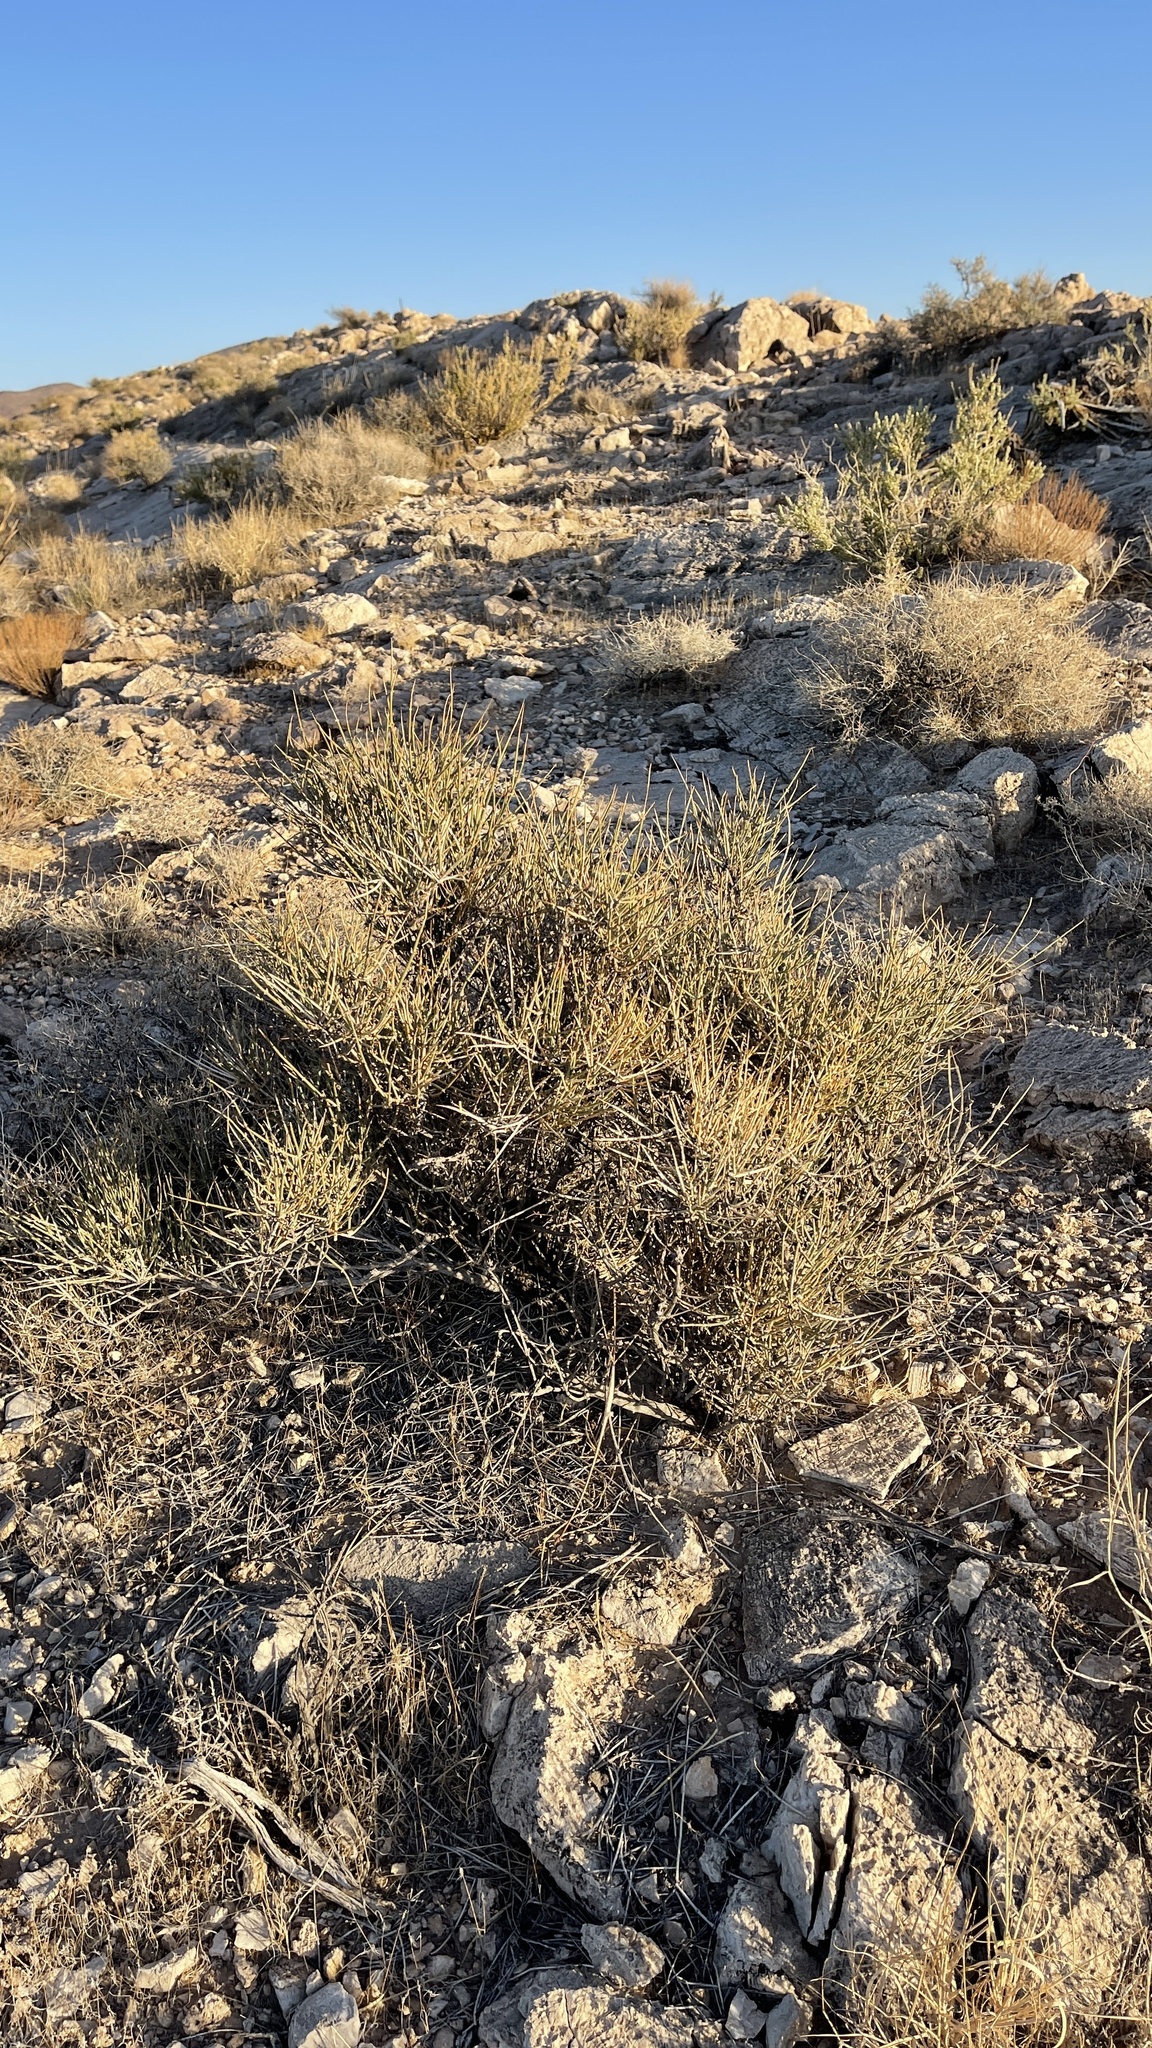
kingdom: Plantae
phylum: Tracheophyta
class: Gnetopsida
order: Ephedrales
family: Ephedraceae
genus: Ephedra
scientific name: Ephedra nevadensis
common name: Gray ephedra
